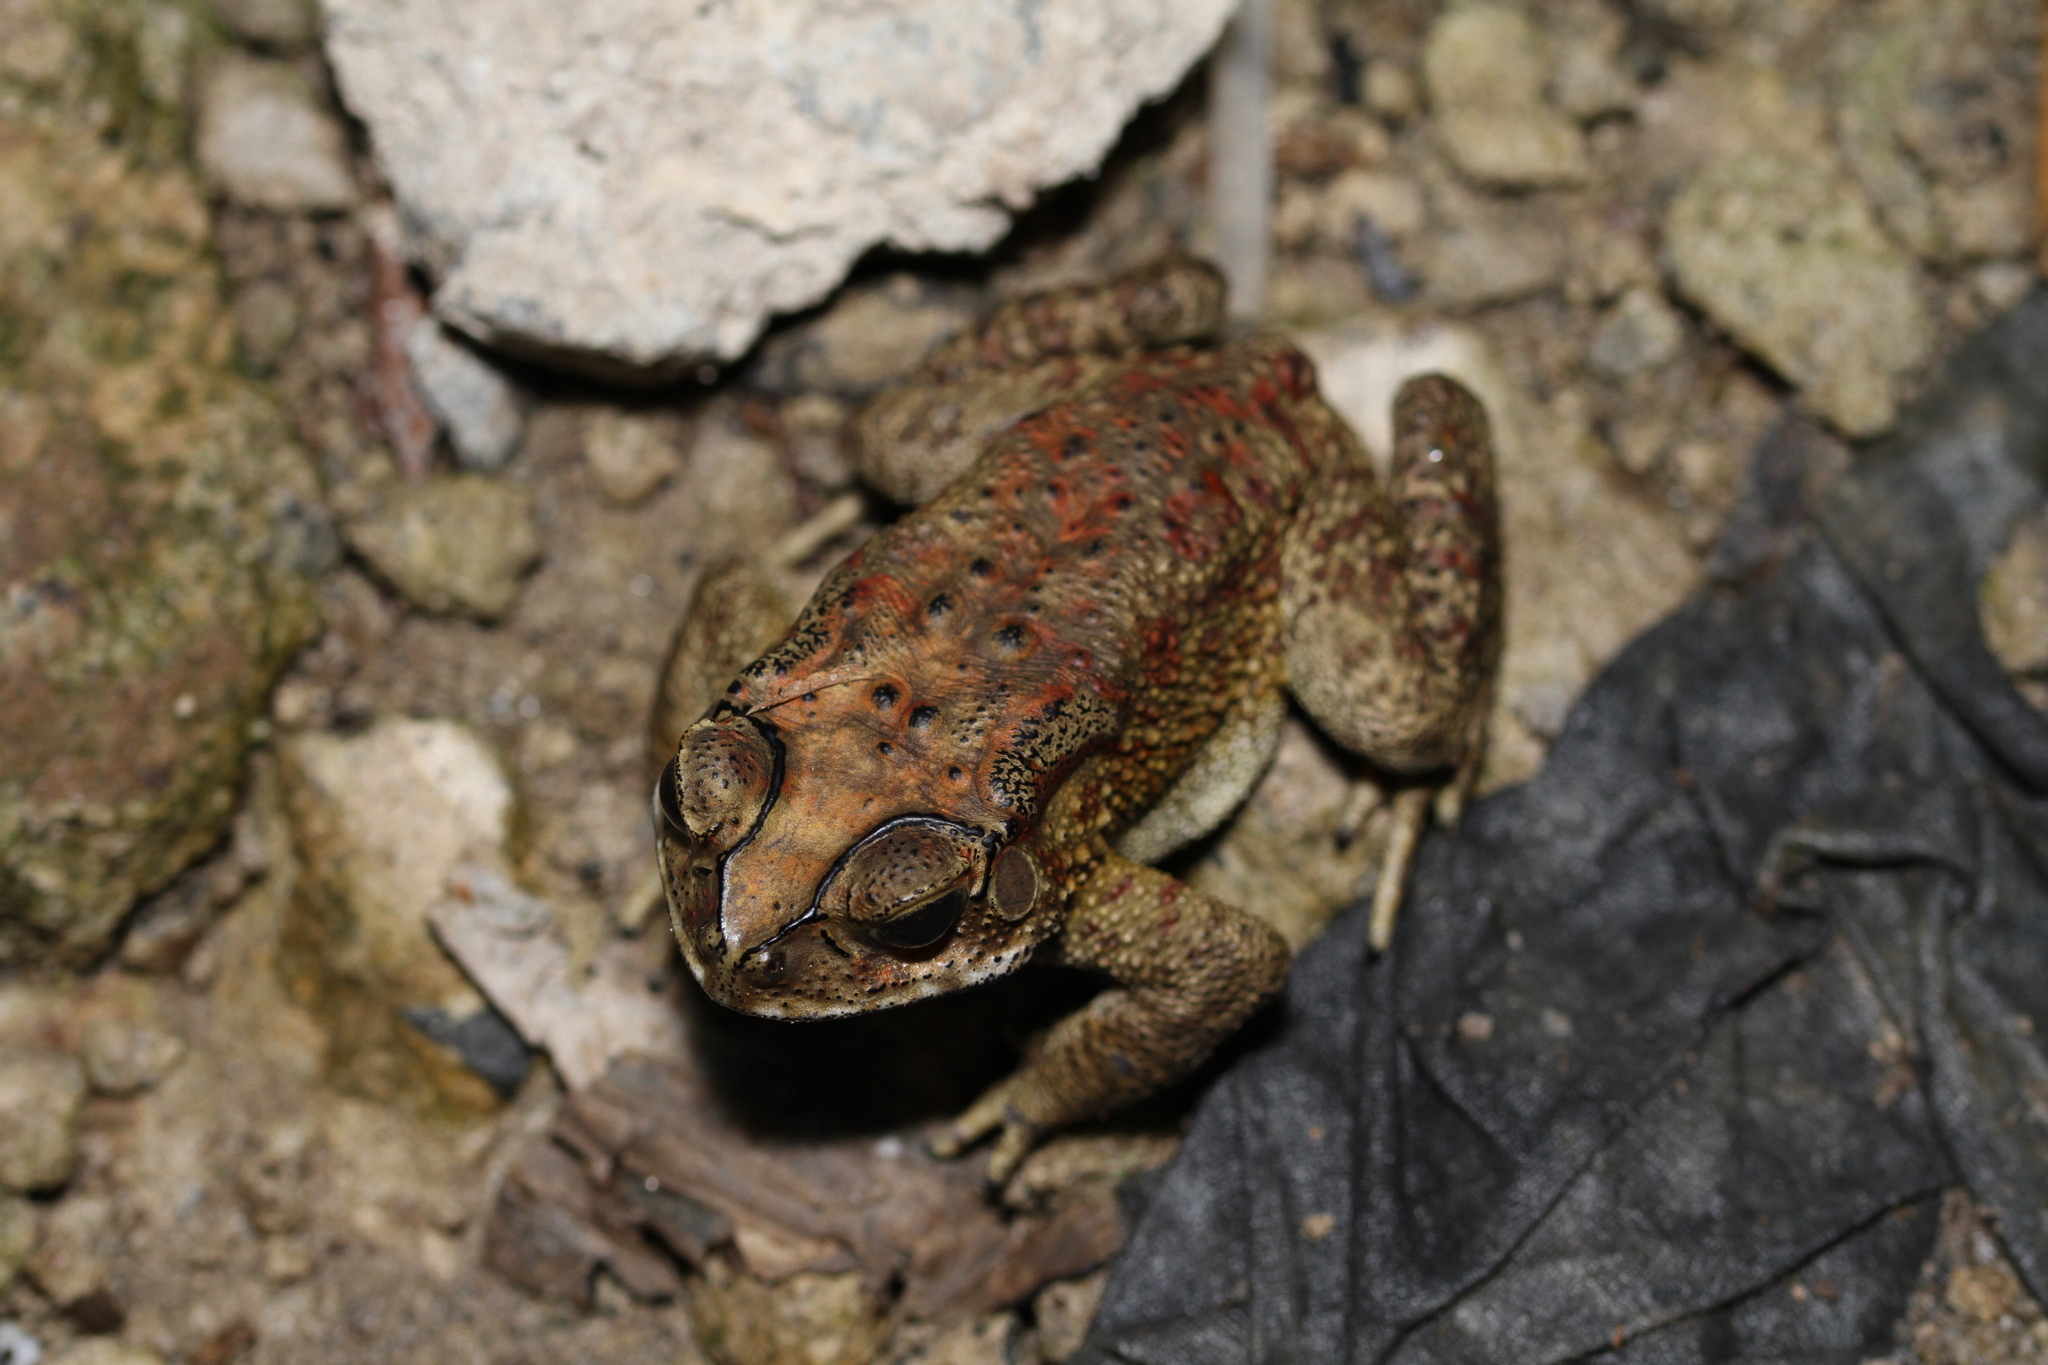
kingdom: Animalia
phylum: Chordata
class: Amphibia
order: Anura
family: Bufonidae
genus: Duttaphrynus
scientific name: Duttaphrynus melanostictus
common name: Common sunda toad
